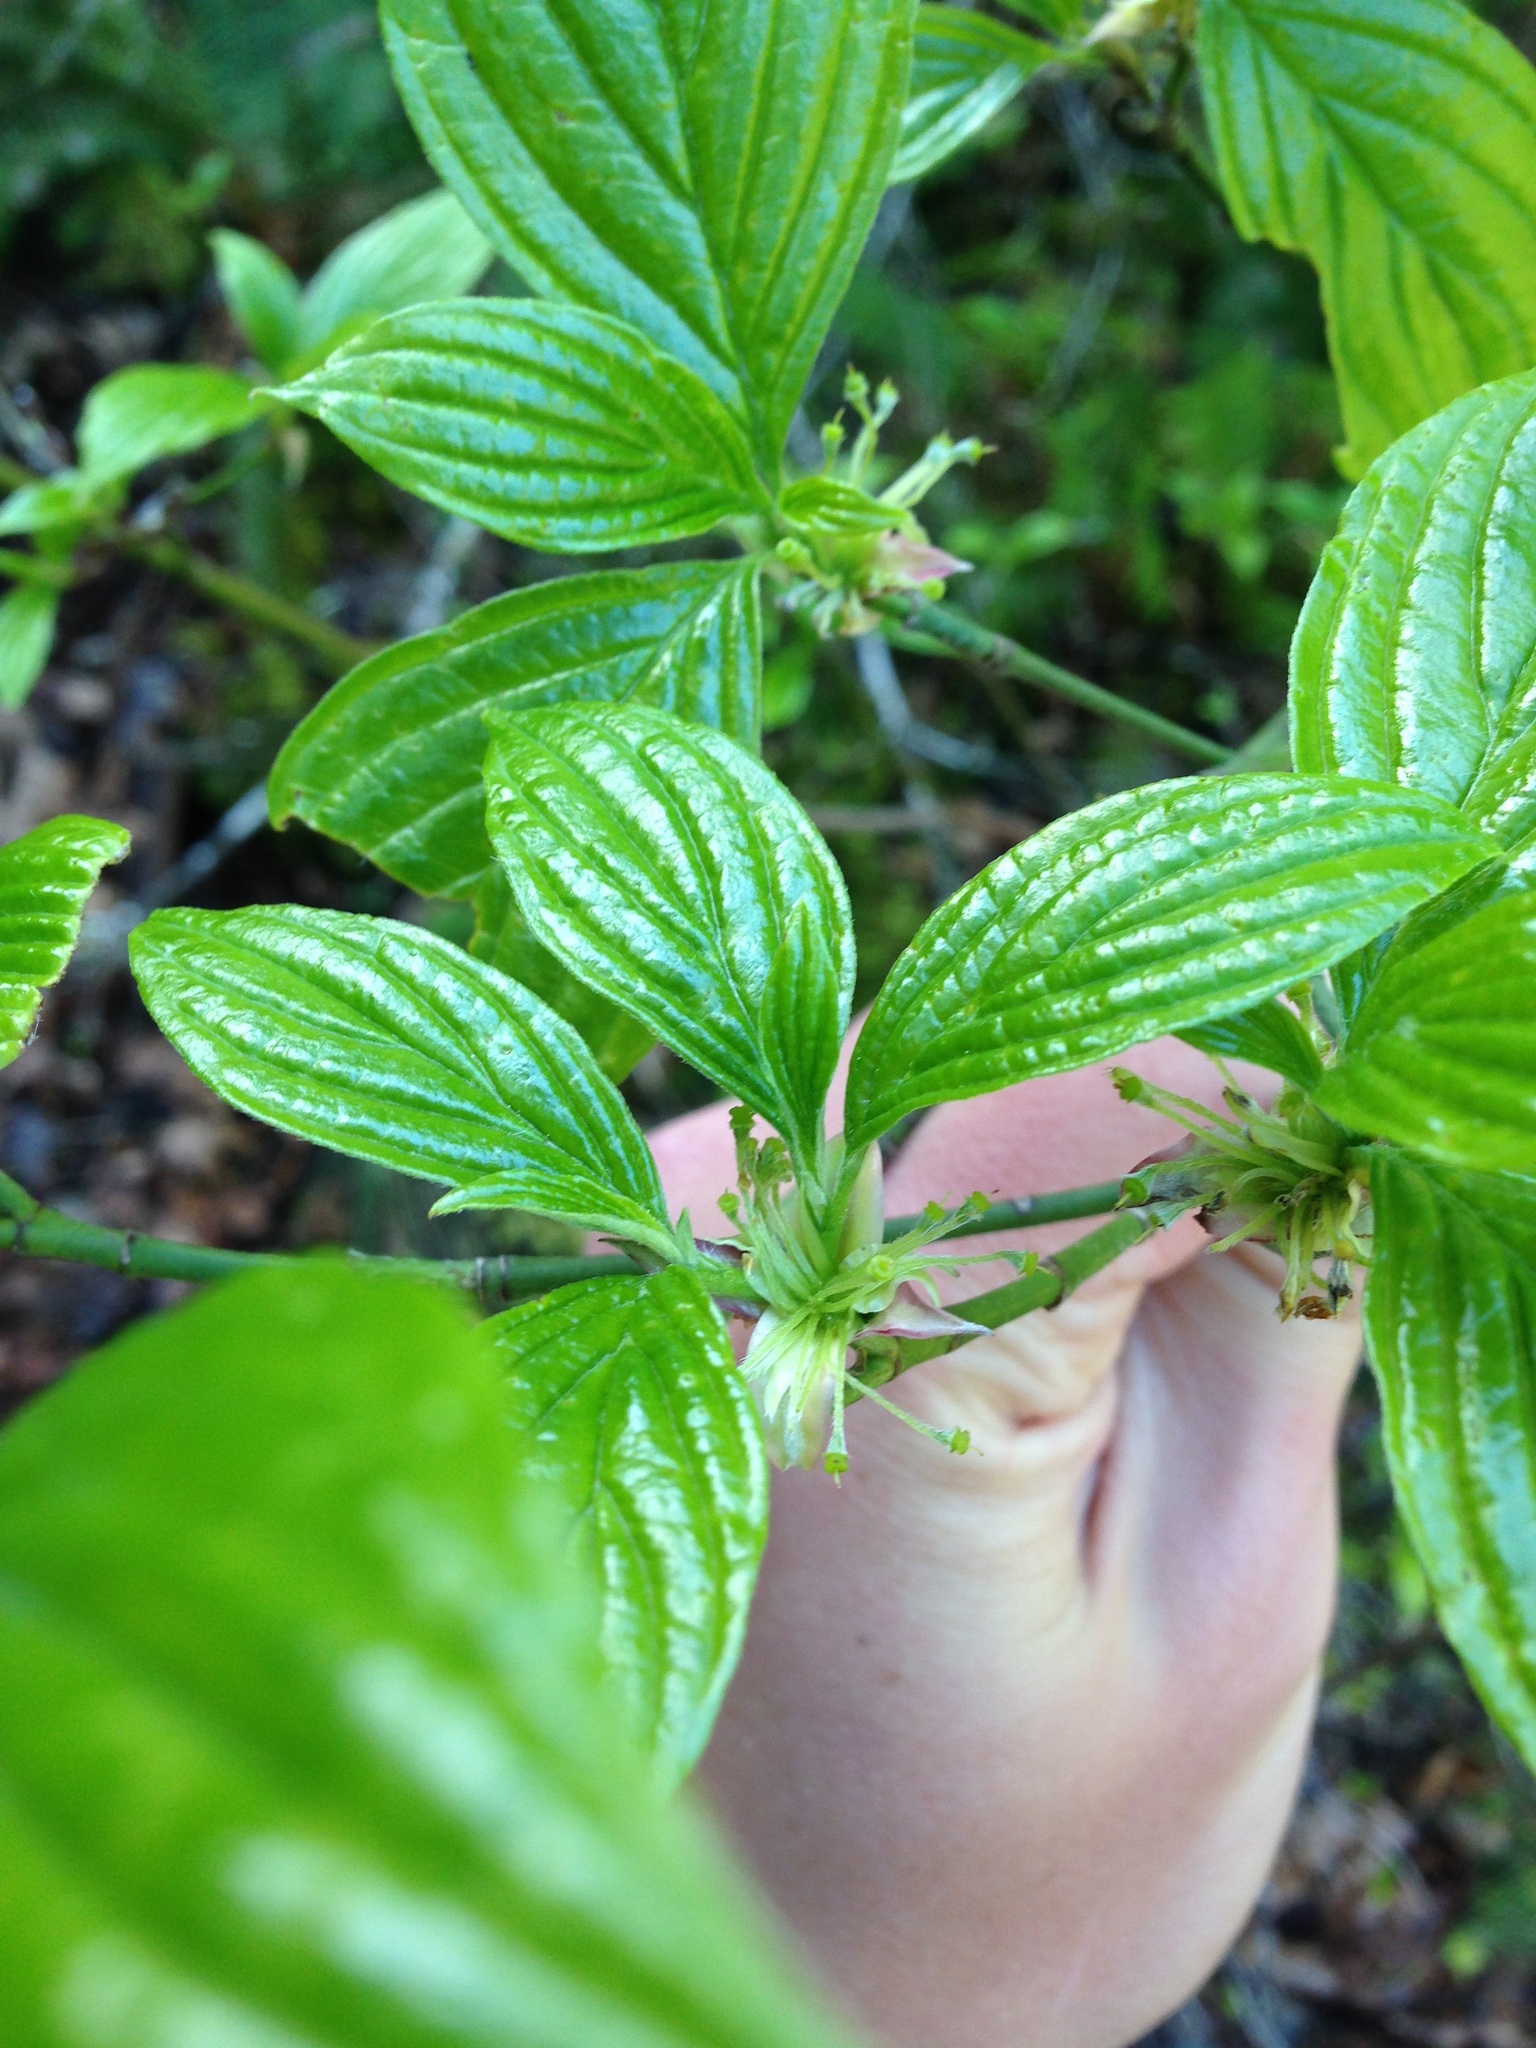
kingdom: Plantae
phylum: Tracheophyta
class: Magnoliopsida
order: Cornales
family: Cornaceae
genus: Cornus
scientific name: Cornus sessilis
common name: Blackfruit dogwood
